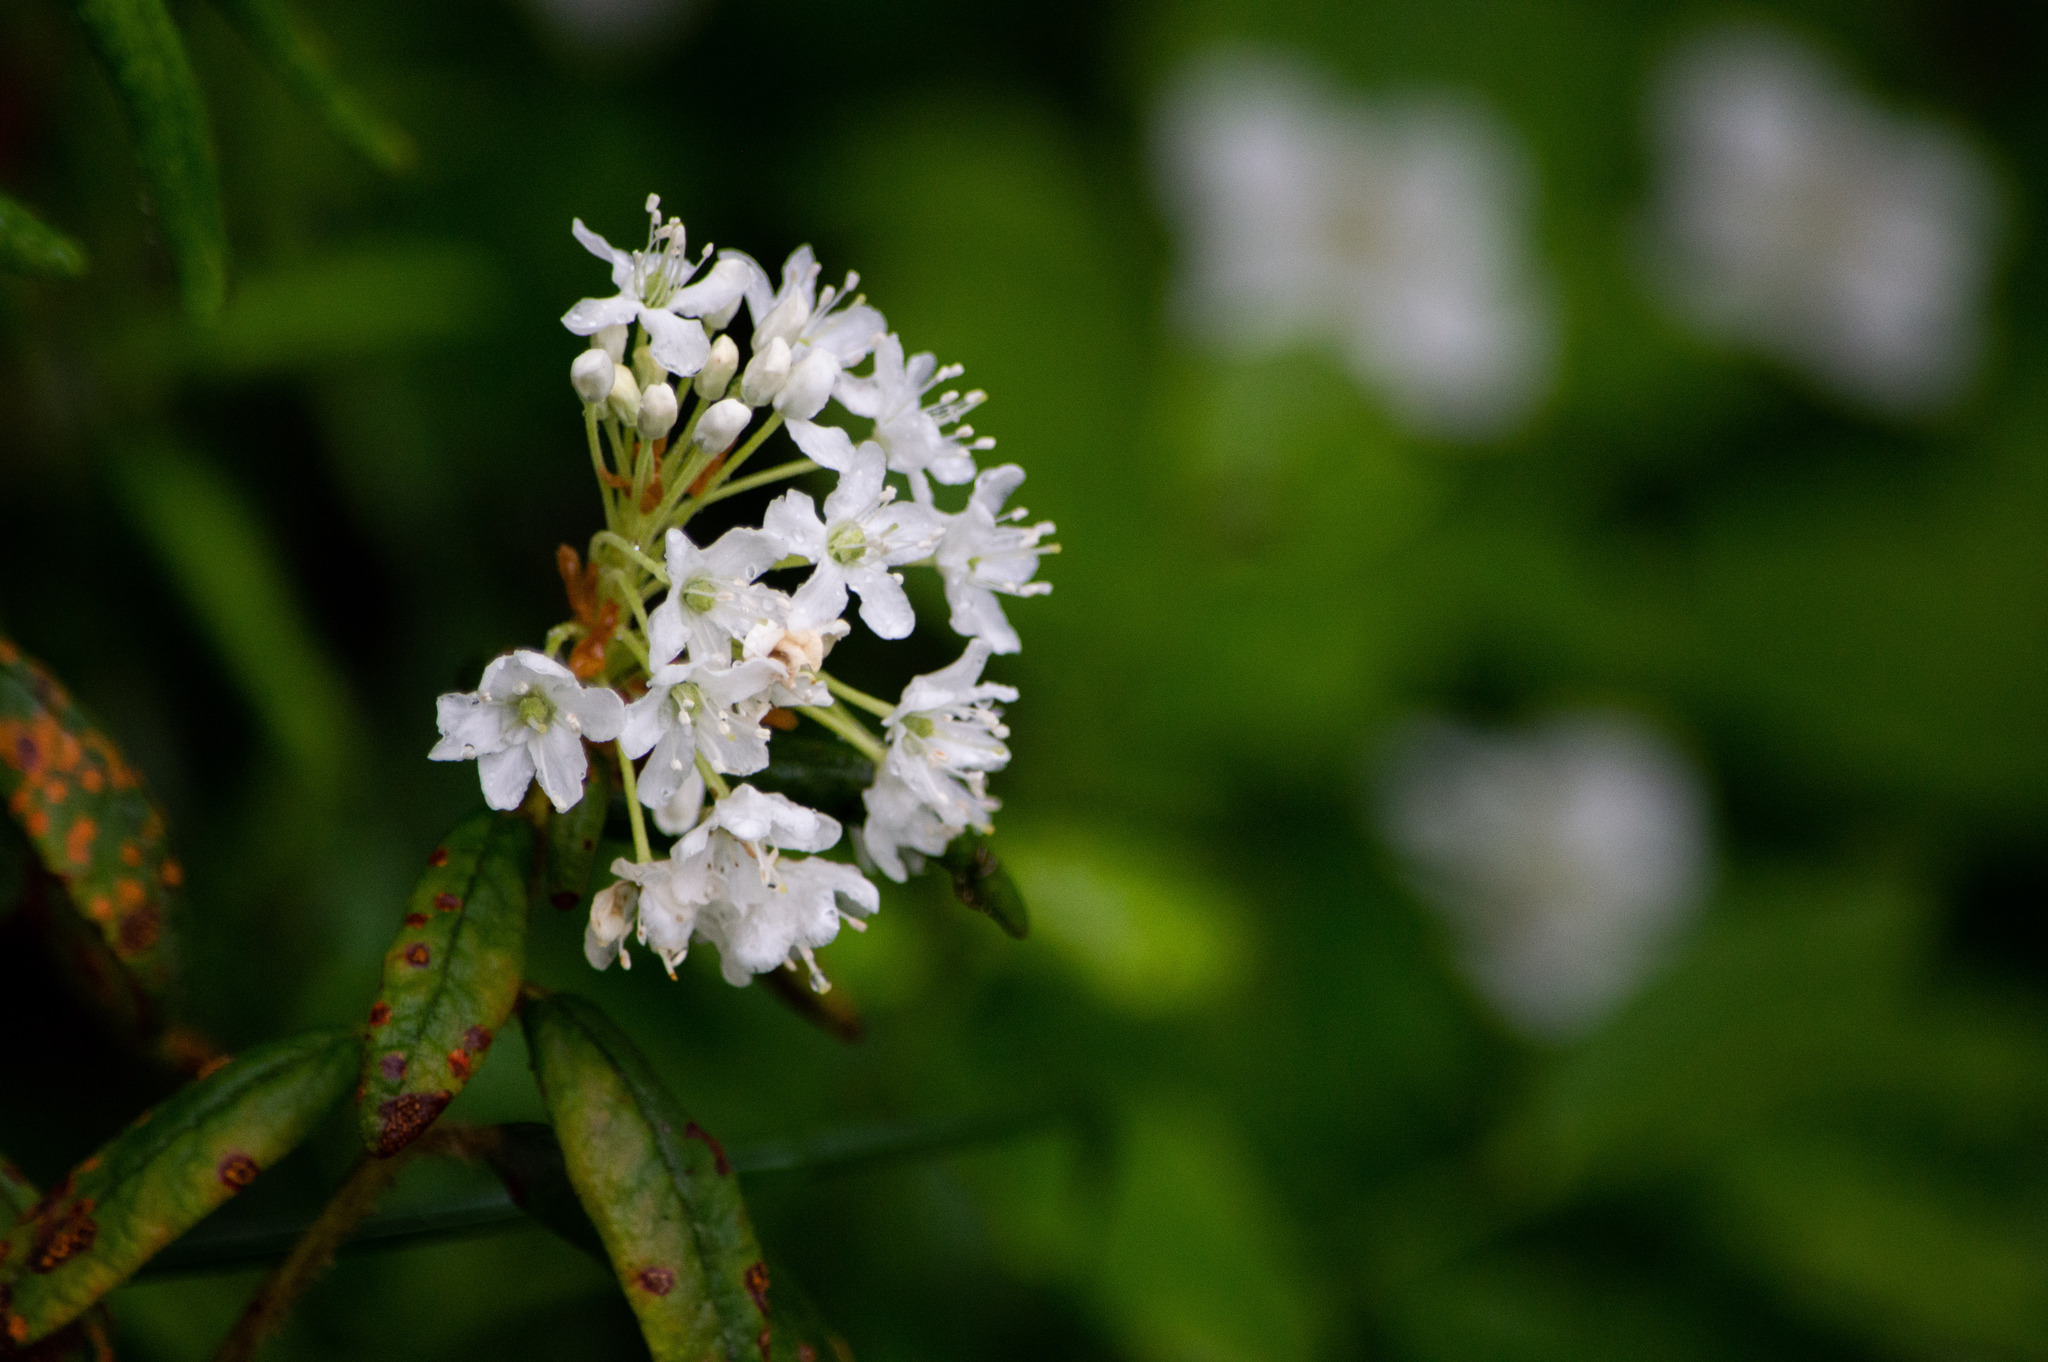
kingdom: Plantae
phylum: Tracheophyta
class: Magnoliopsida
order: Ericales
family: Ericaceae
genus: Rhododendron
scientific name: Rhododendron groenlandicum
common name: Bog labrador tea
